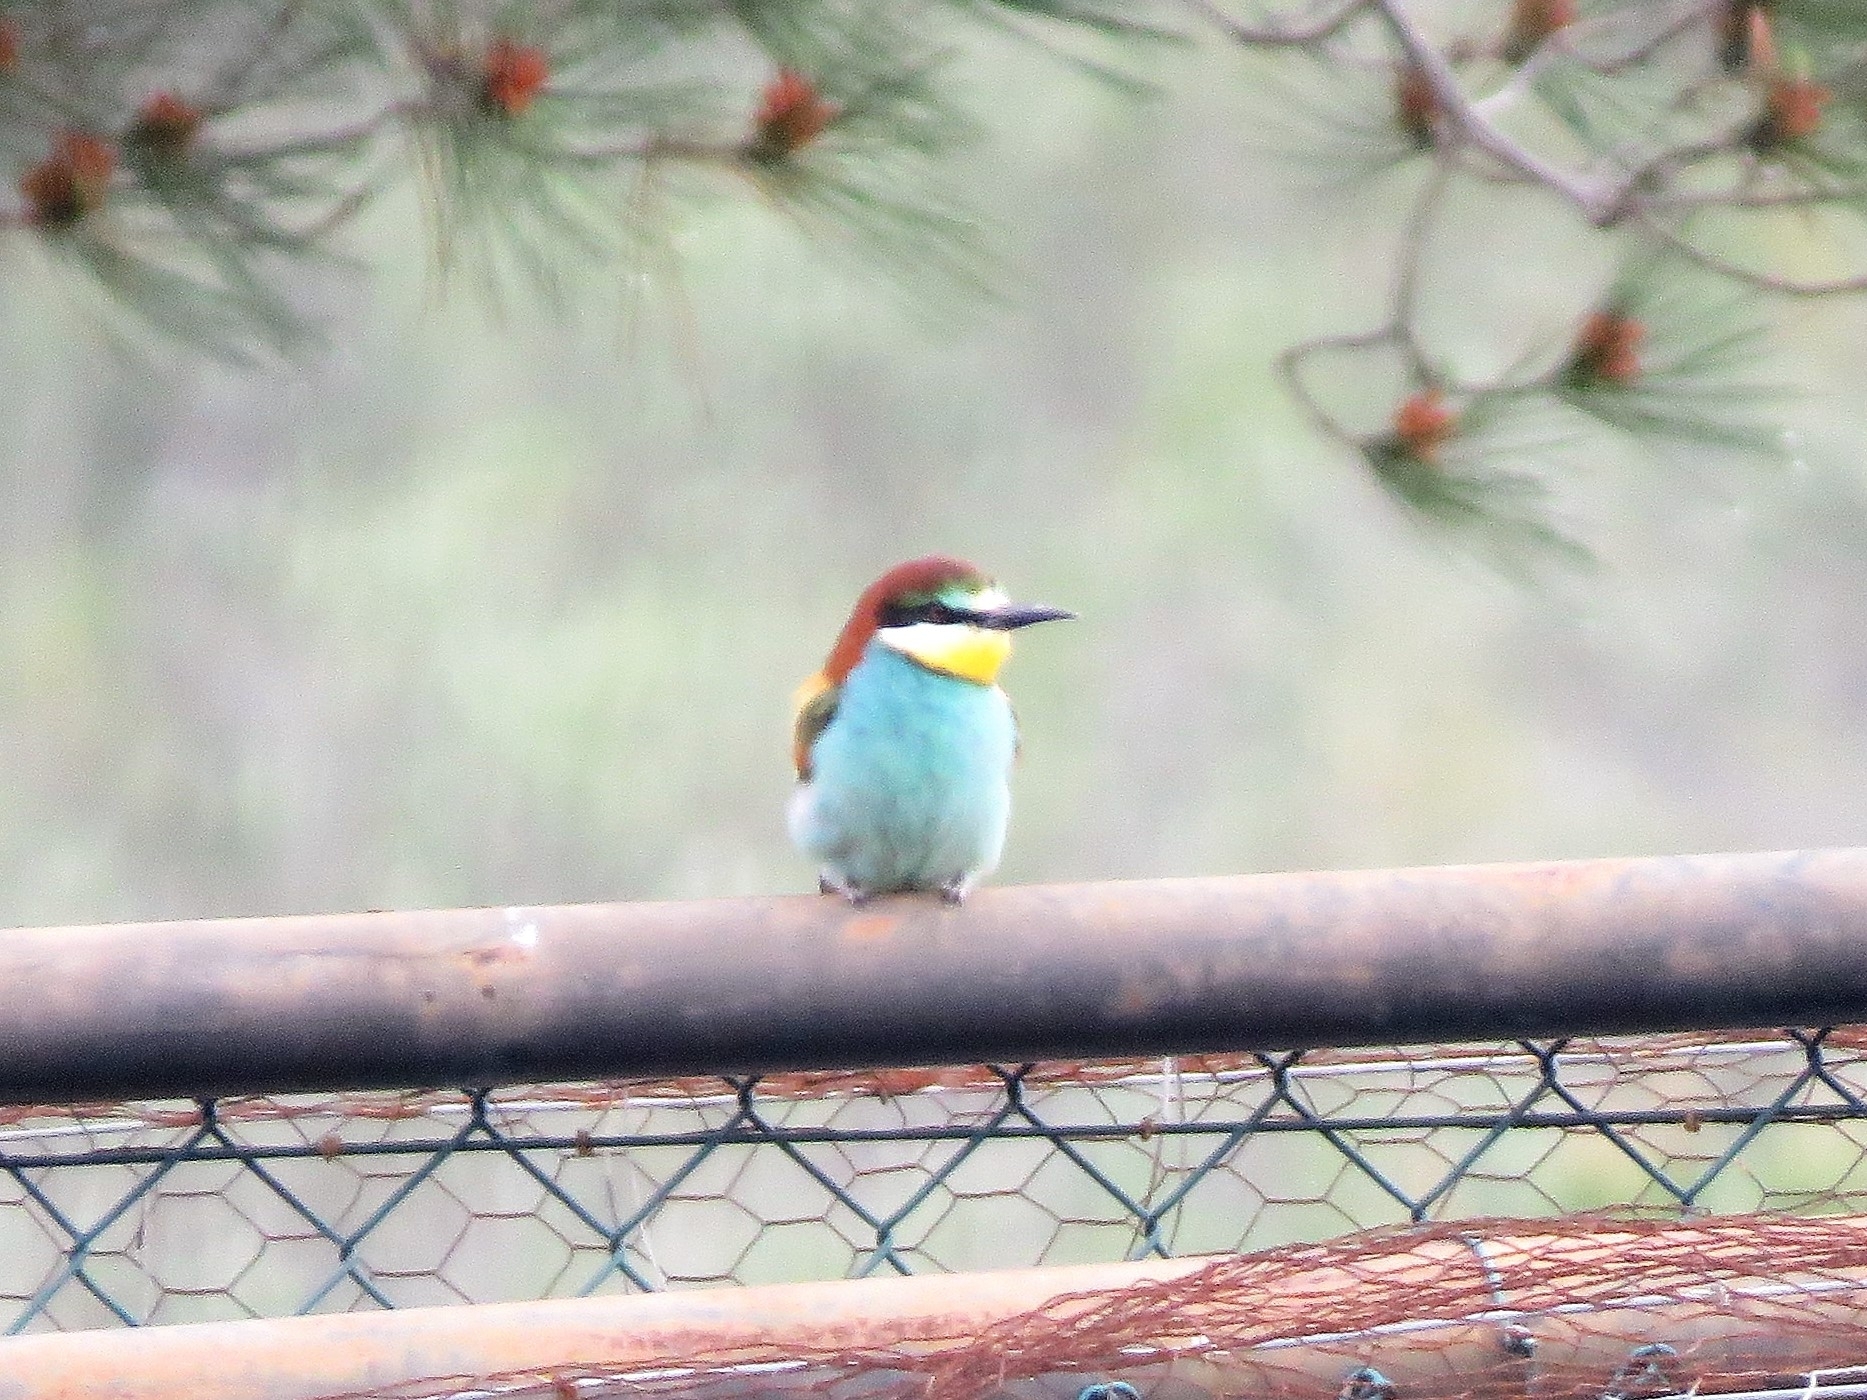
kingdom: Animalia
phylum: Chordata
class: Aves
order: Coraciiformes
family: Meropidae
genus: Merops
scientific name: Merops apiaster
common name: European bee-eater
